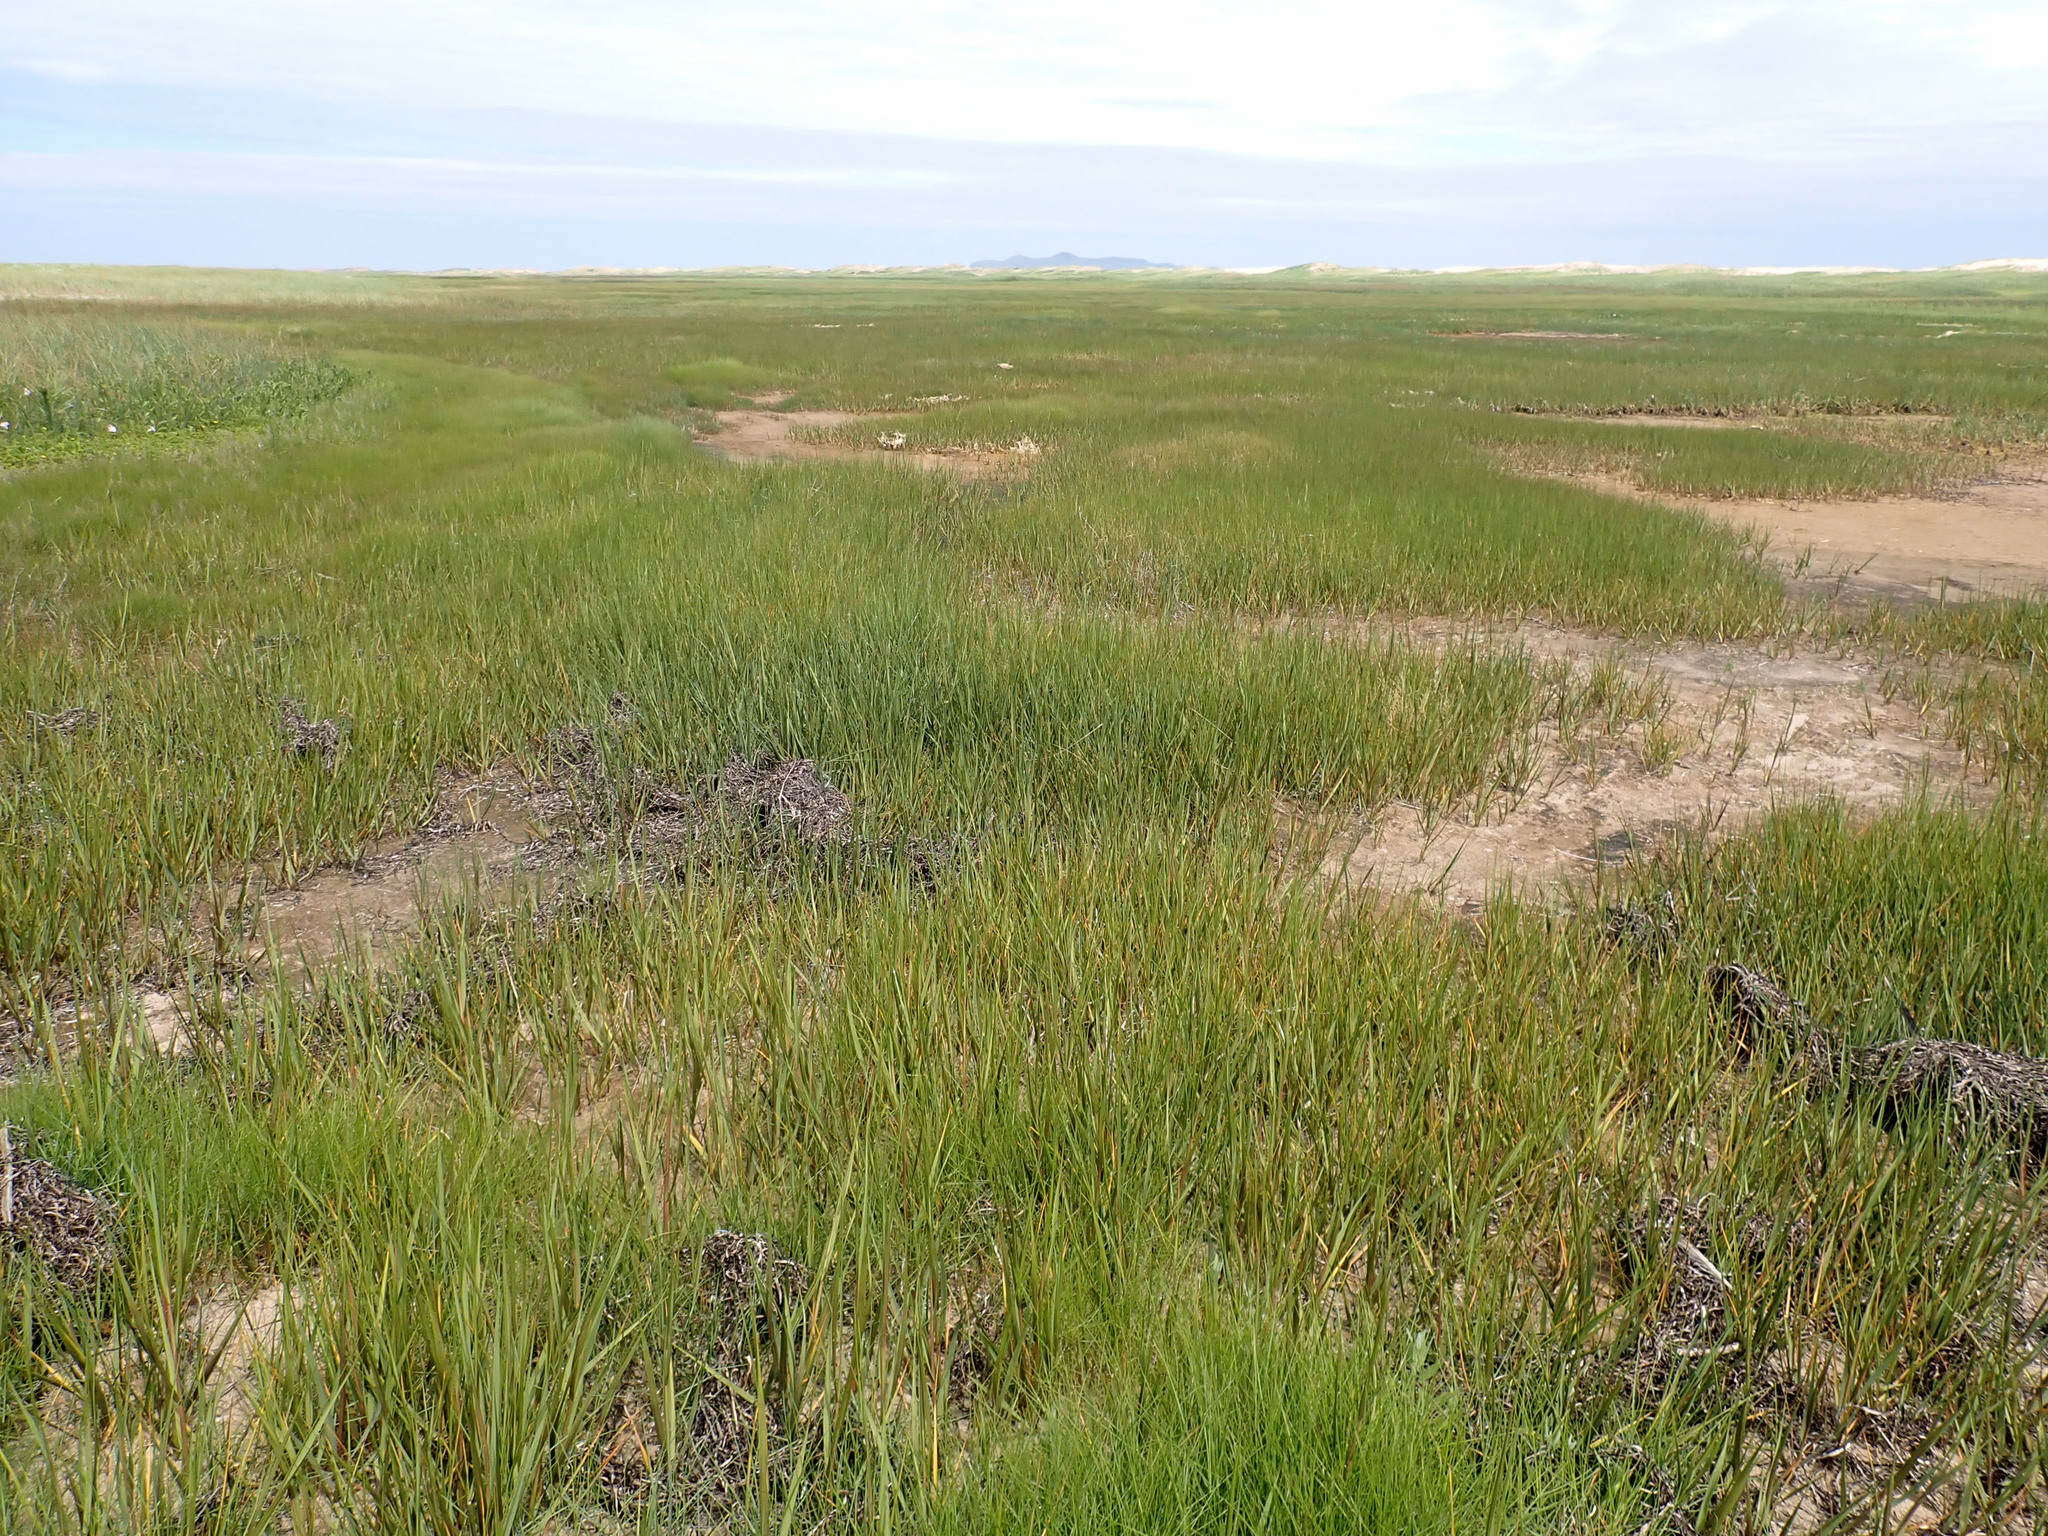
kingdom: Plantae
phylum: Tracheophyta
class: Liliopsida
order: Poales
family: Poaceae
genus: Sporobolus
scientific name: Sporobolus alterniflorus
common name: Atlantic cordgrass
